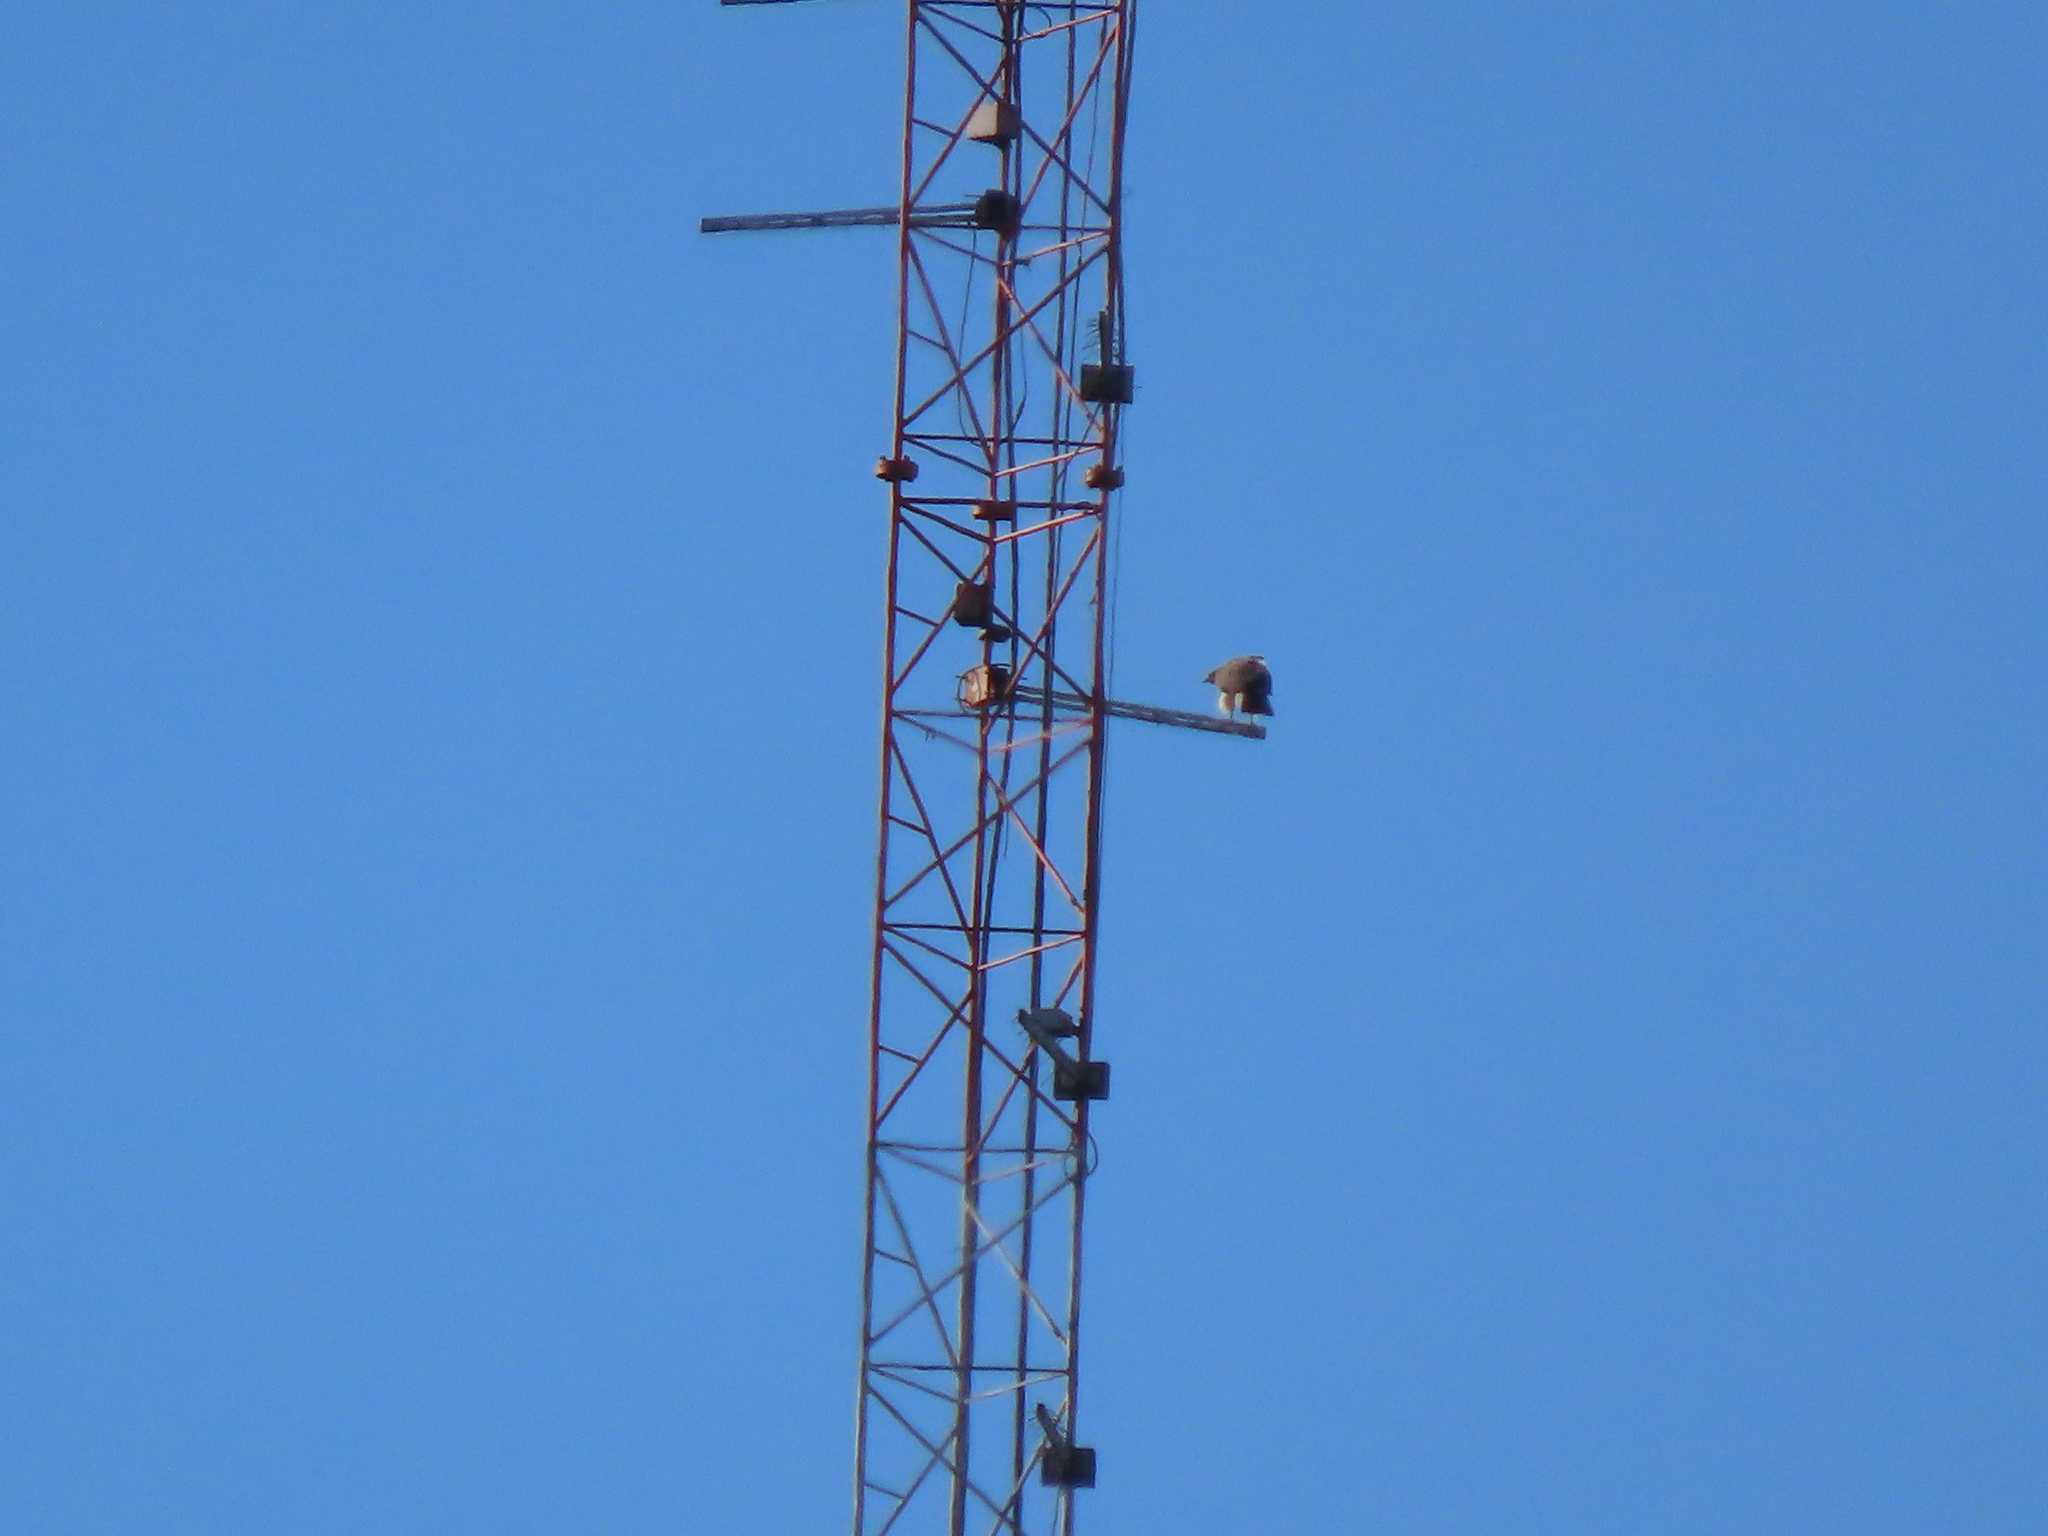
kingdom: Animalia
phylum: Chordata
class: Aves
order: Accipitriformes
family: Accipitridae
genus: Buteo
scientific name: Buteo jamaicensis
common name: Red-tailed hawk
